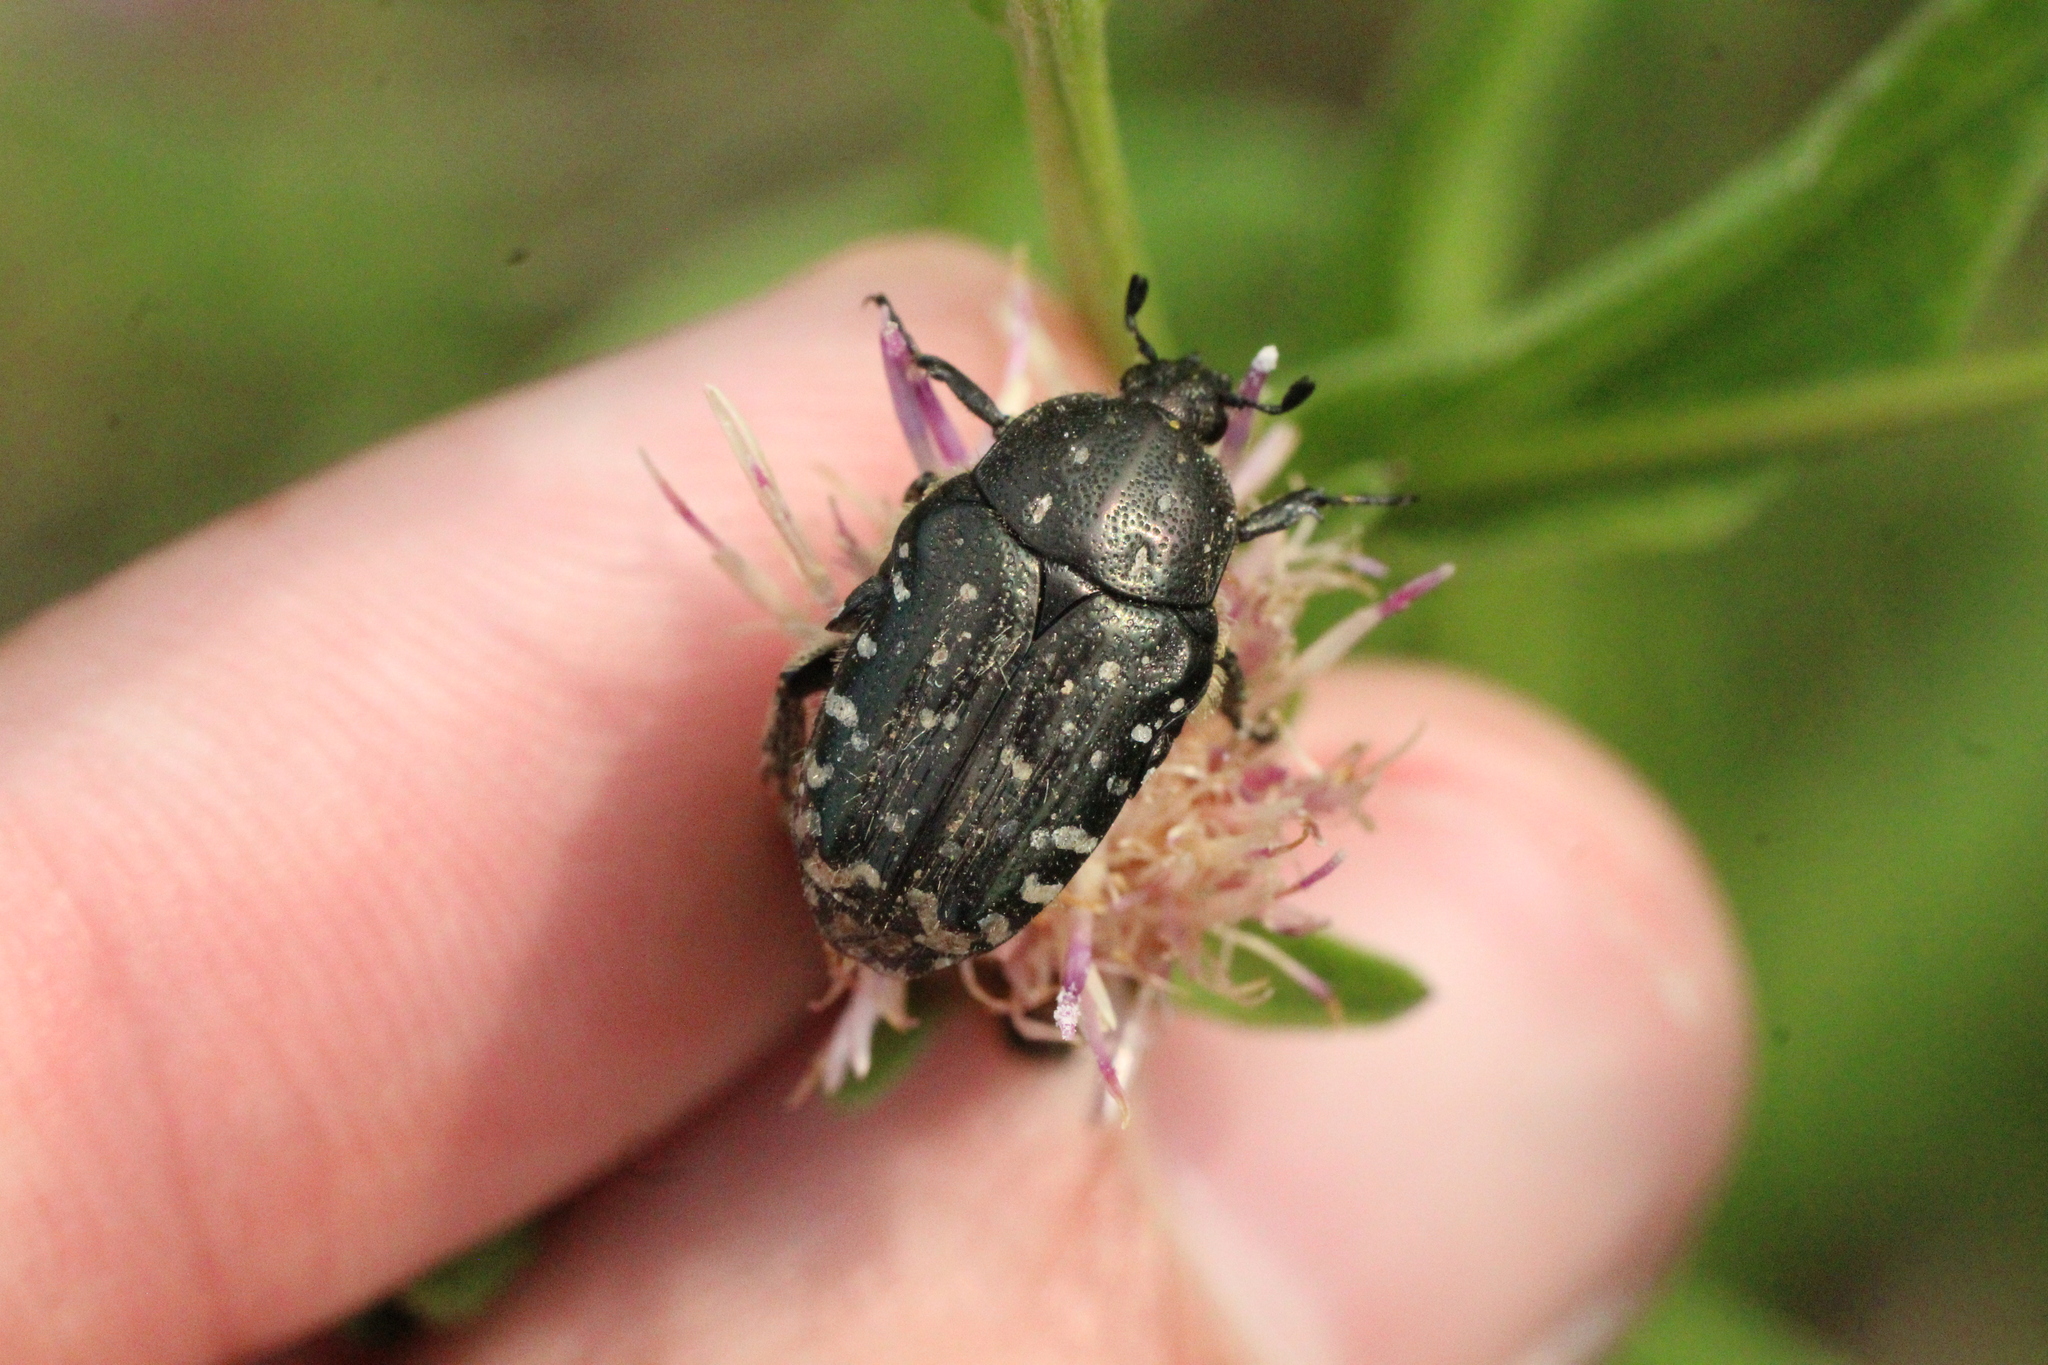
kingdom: Animalia
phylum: Arthropoda
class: Insecta
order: Coleoptera
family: Scarabaeidae
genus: Oxythyrea
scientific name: Oxythyrea funesta
